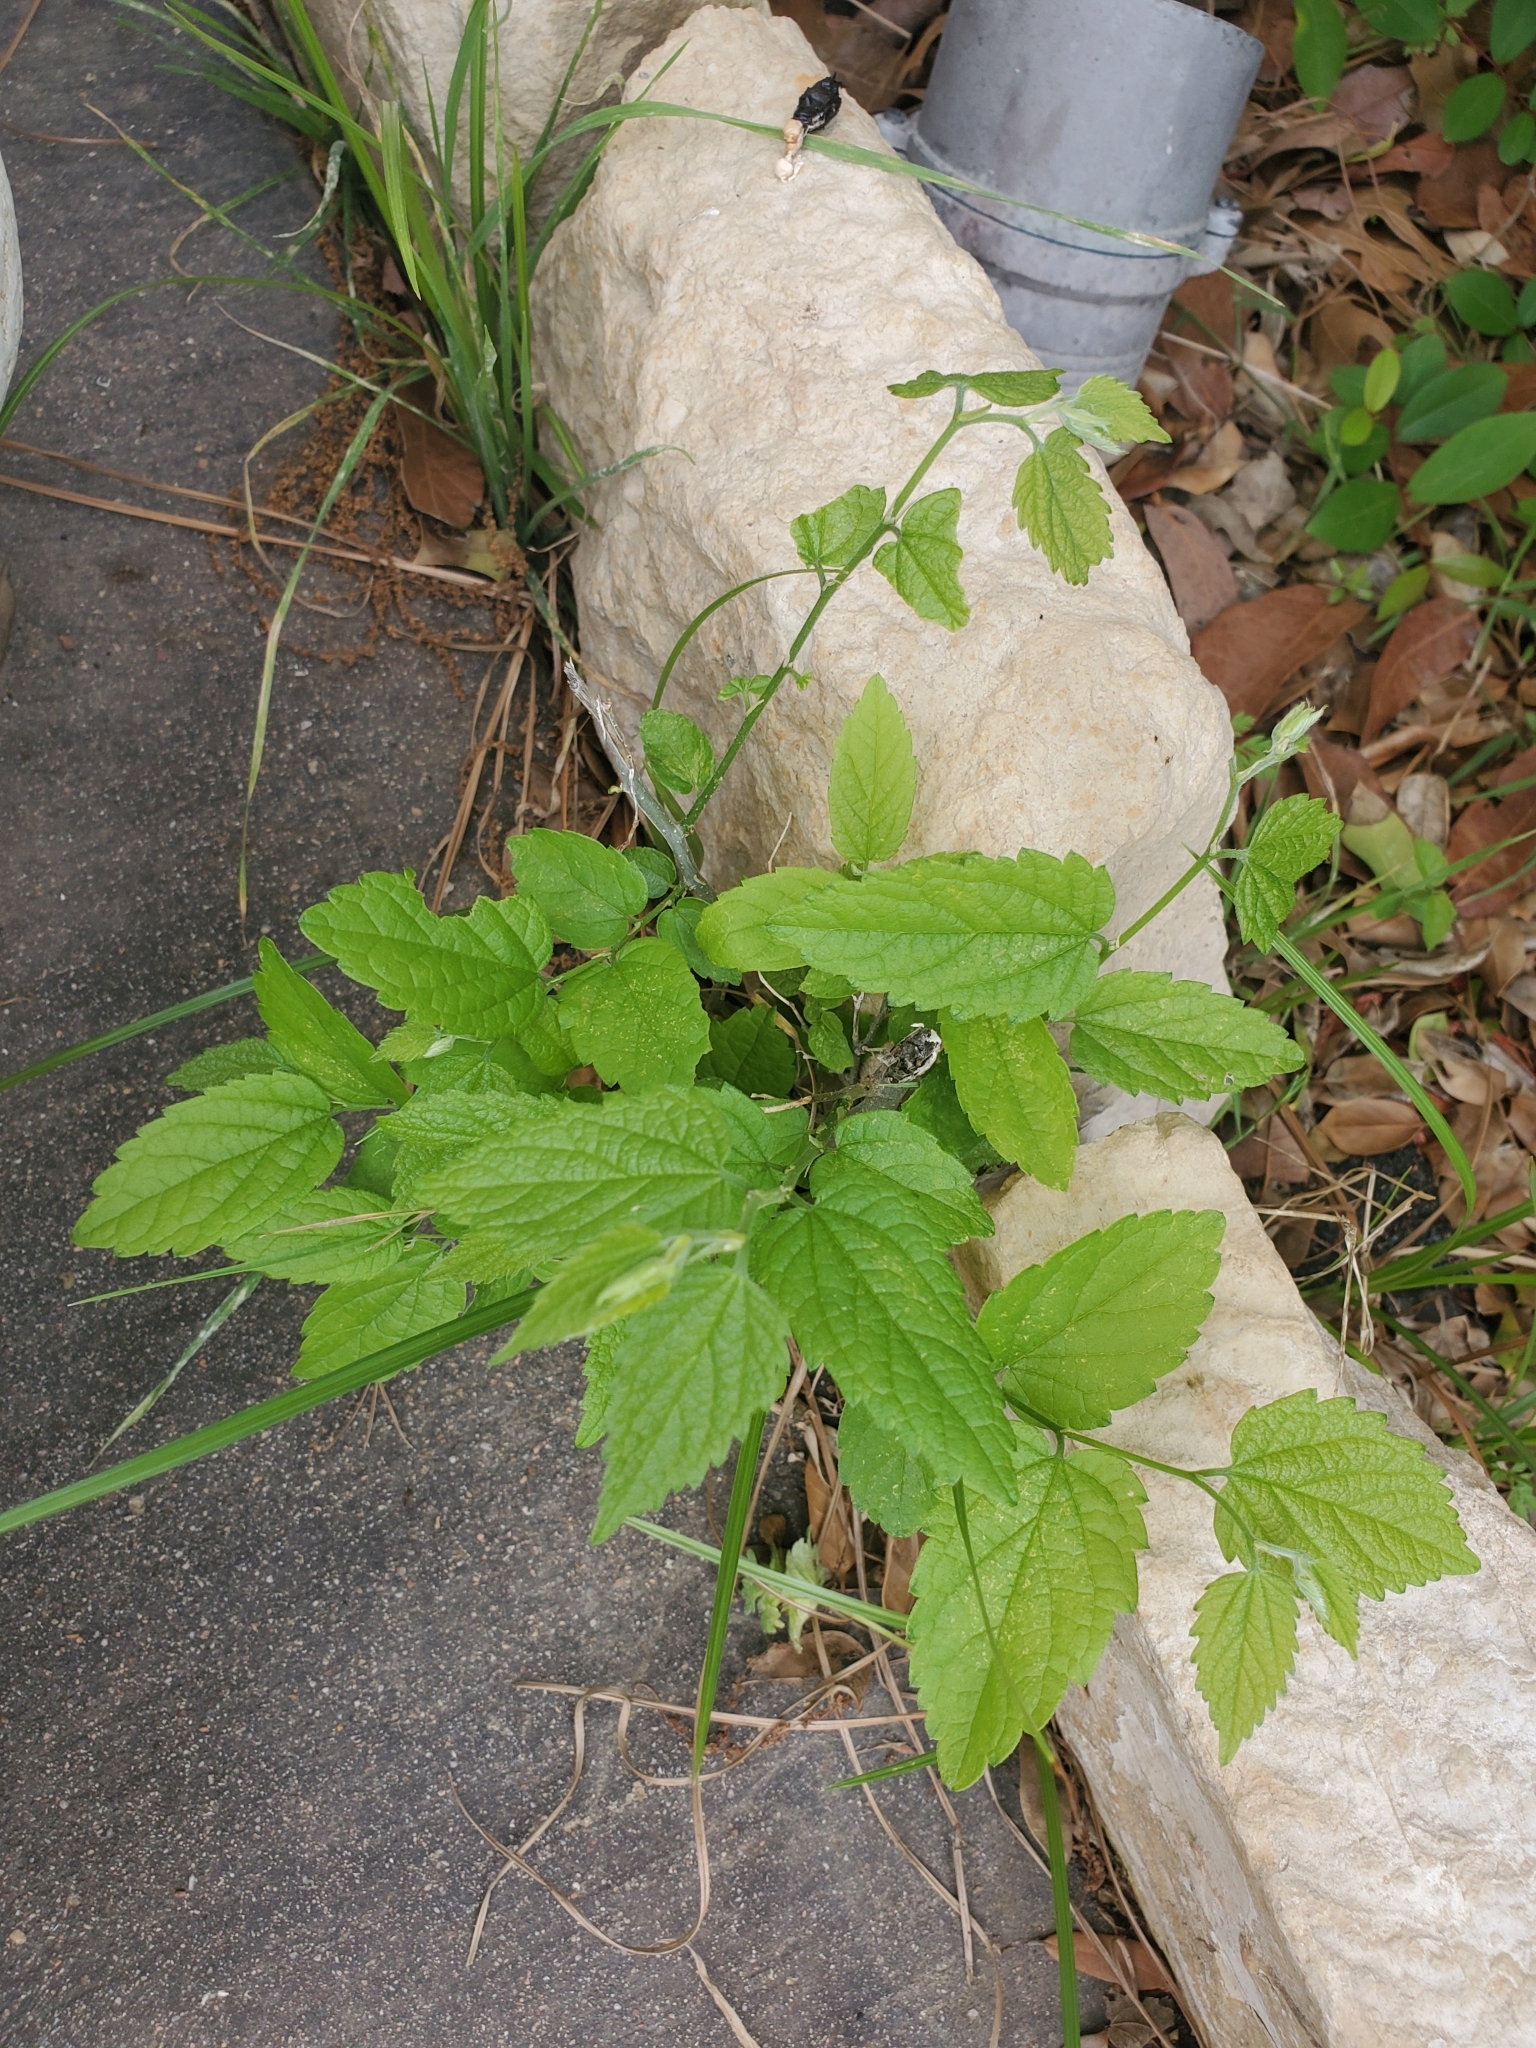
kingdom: Plantae
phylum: Tracheophyta
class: Magnoliopsida
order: Rosales
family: Cannabaceae
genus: Celtis
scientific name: Celtis laevigata
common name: Sugarberry
